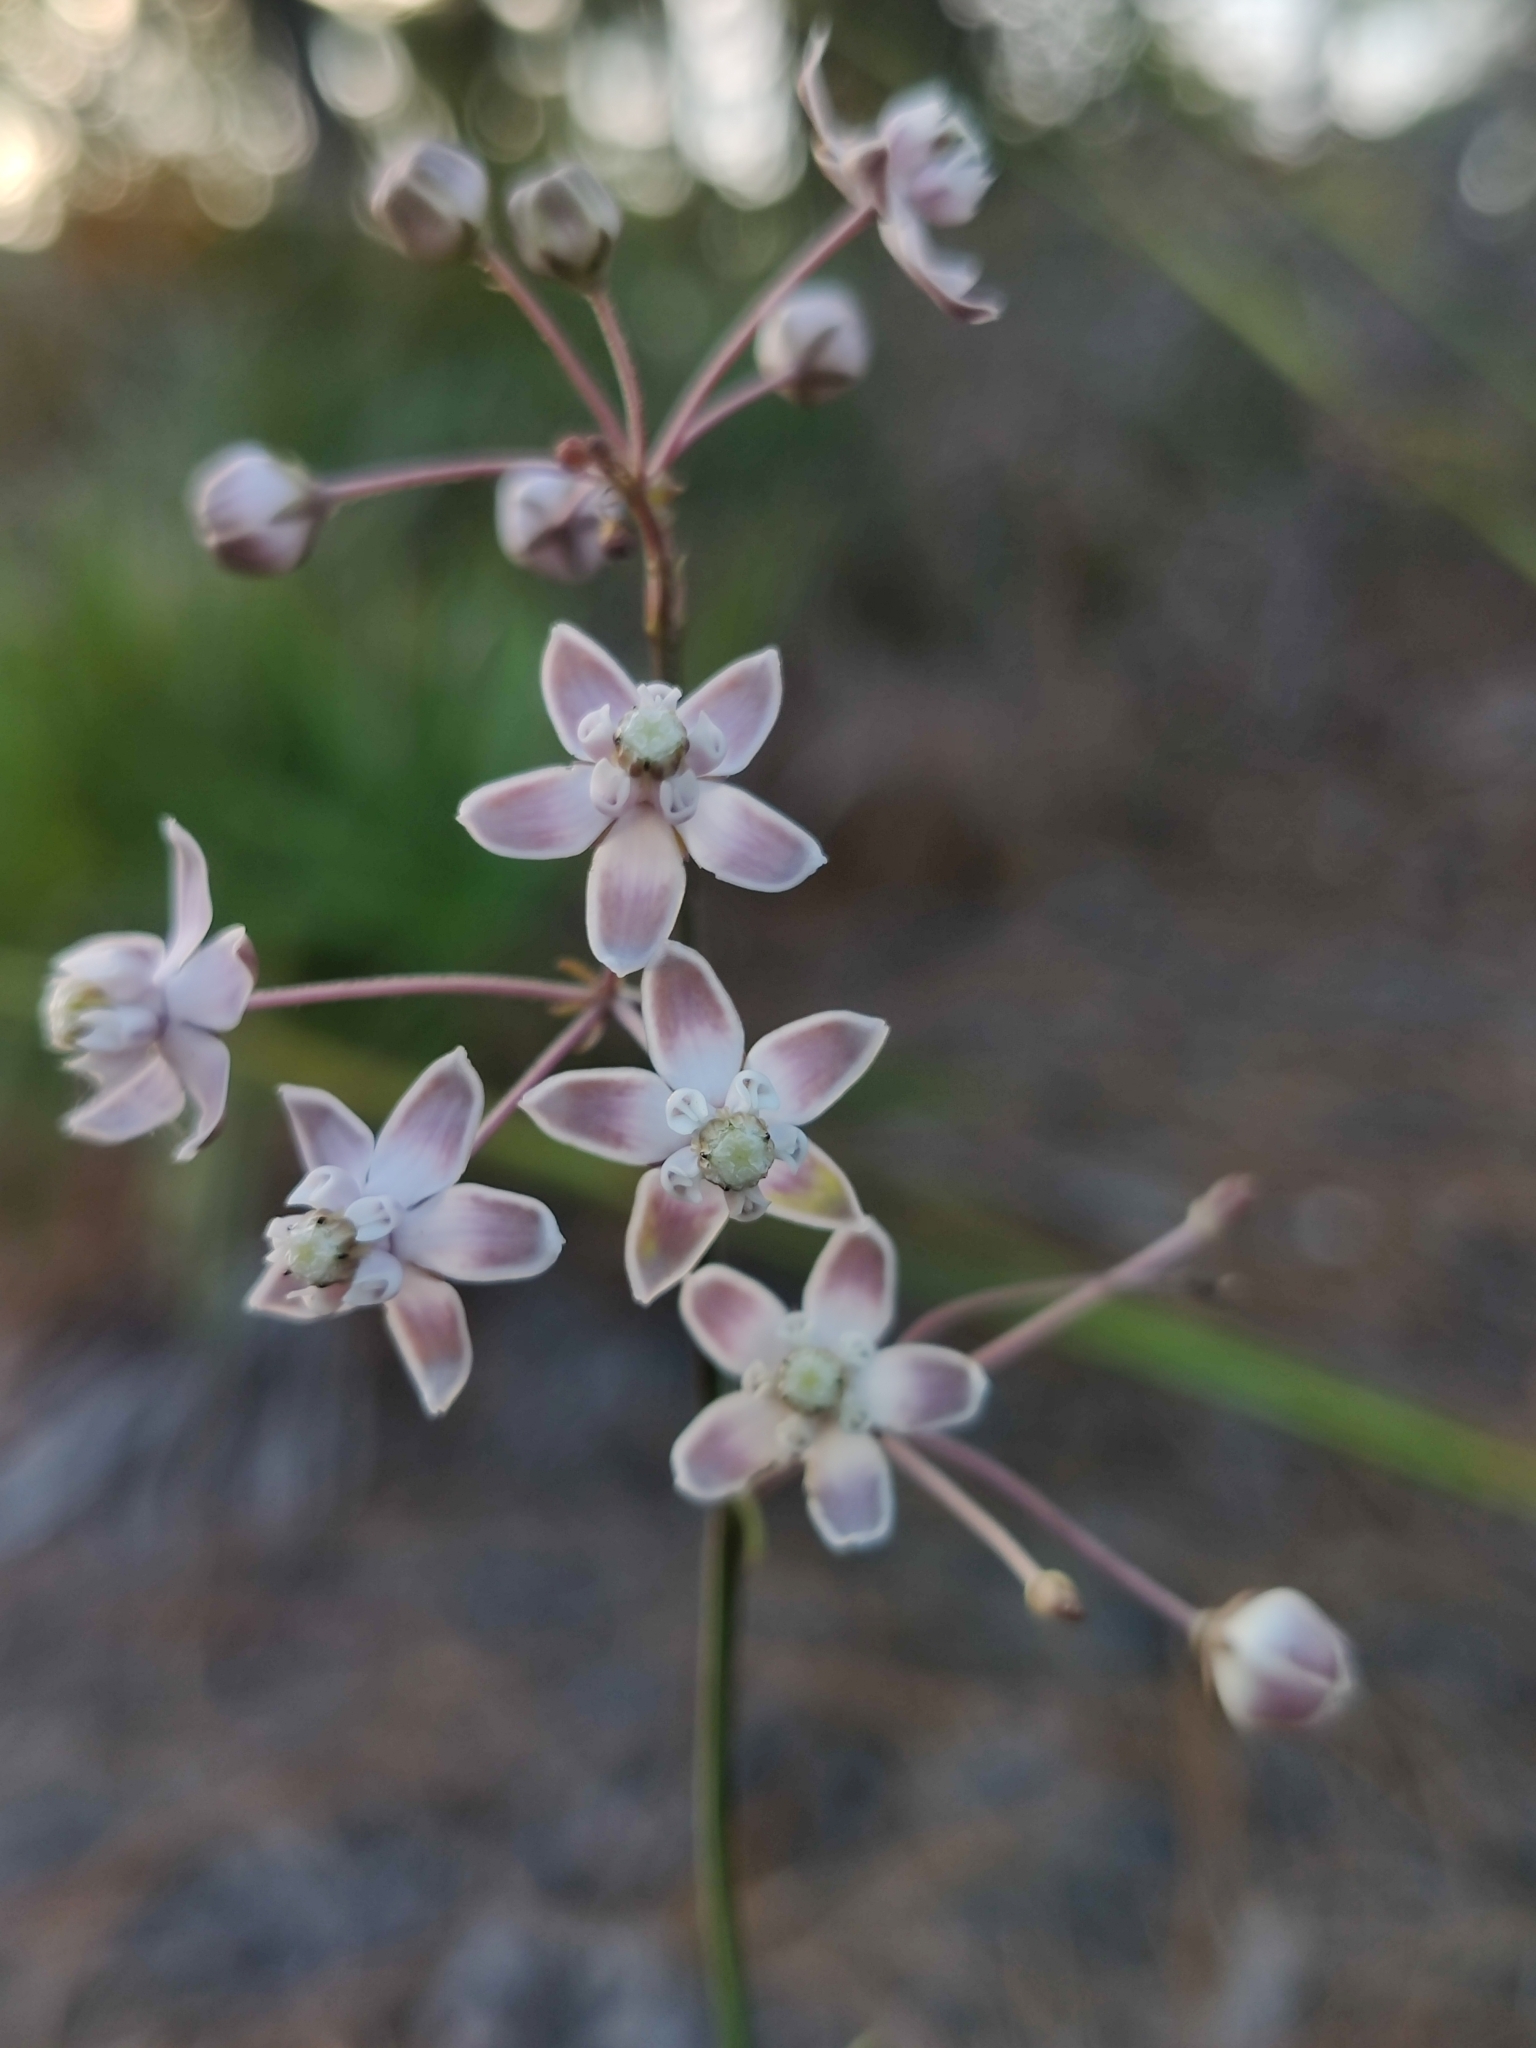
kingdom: Plantae
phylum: Tracheophyta
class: Magnoliopsida
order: Gentianales
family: Apocynaceae
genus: Asclepias
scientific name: Asclepias cinerea
